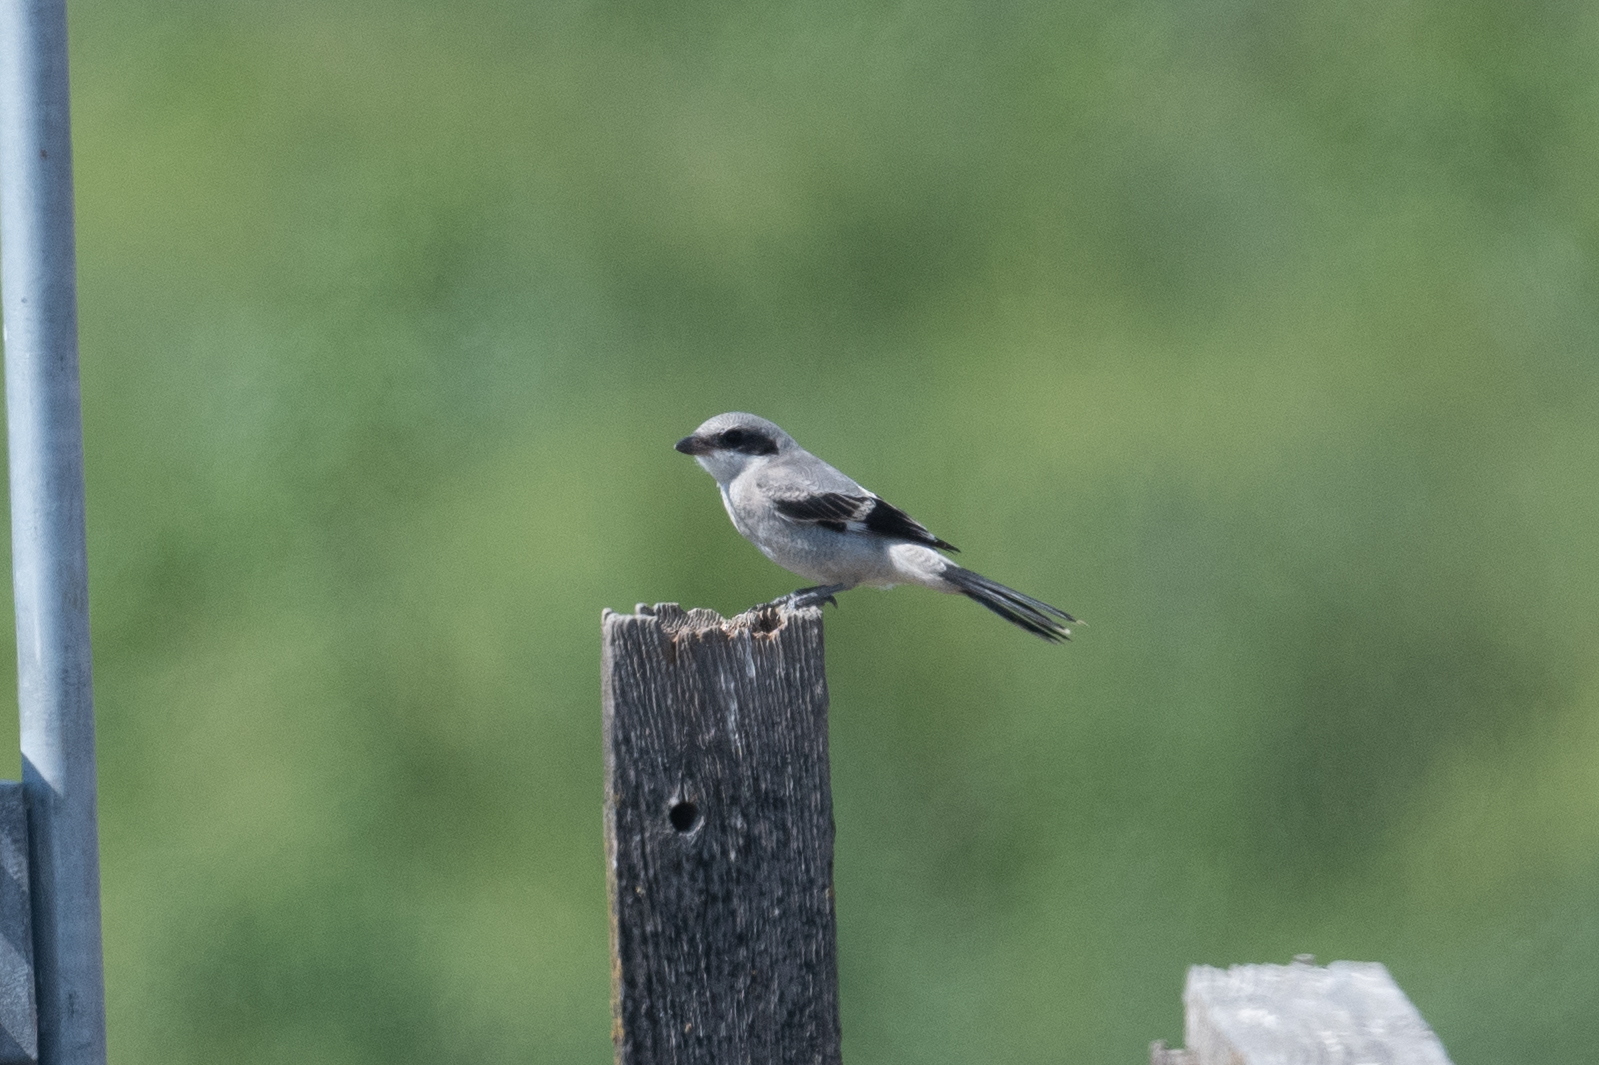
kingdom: Animalia
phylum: Chordata
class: Aves
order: Passeriformes
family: Laniidae
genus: Lanius
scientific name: Lanius ludovicianus
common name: Loggerhead shrike
